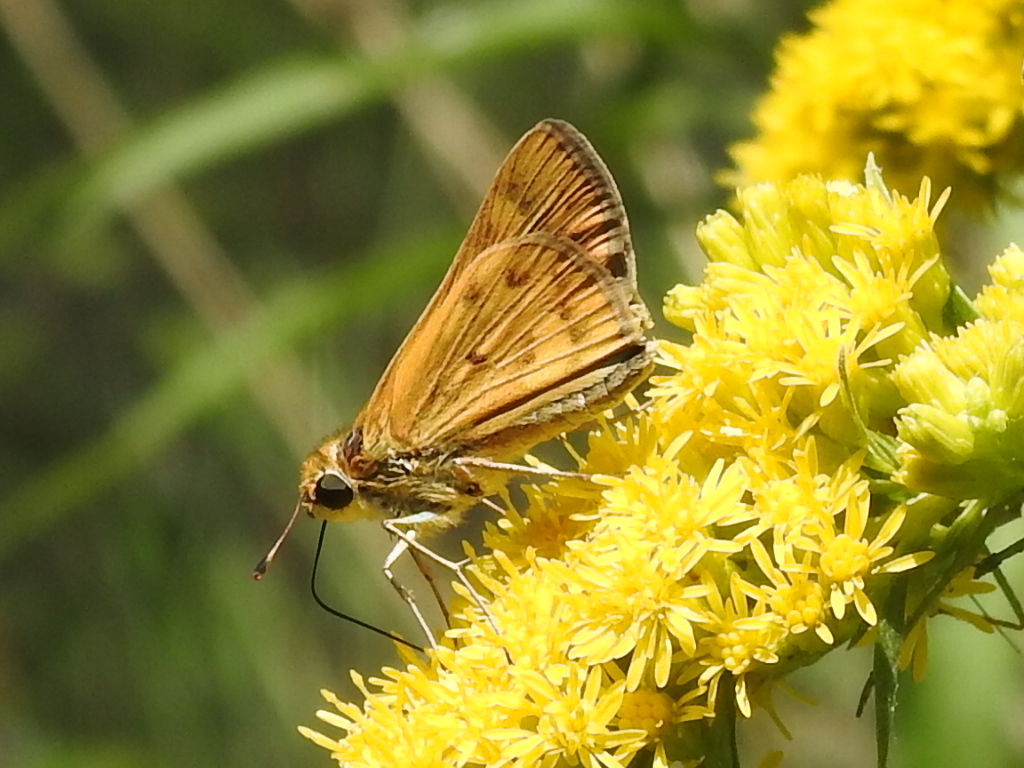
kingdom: Animalia
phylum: Arthropoda
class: Insecta
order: Lepidoptera
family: Hesperiidae
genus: Hylephila
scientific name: Hylephila phyleus
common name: Fiery skipper
